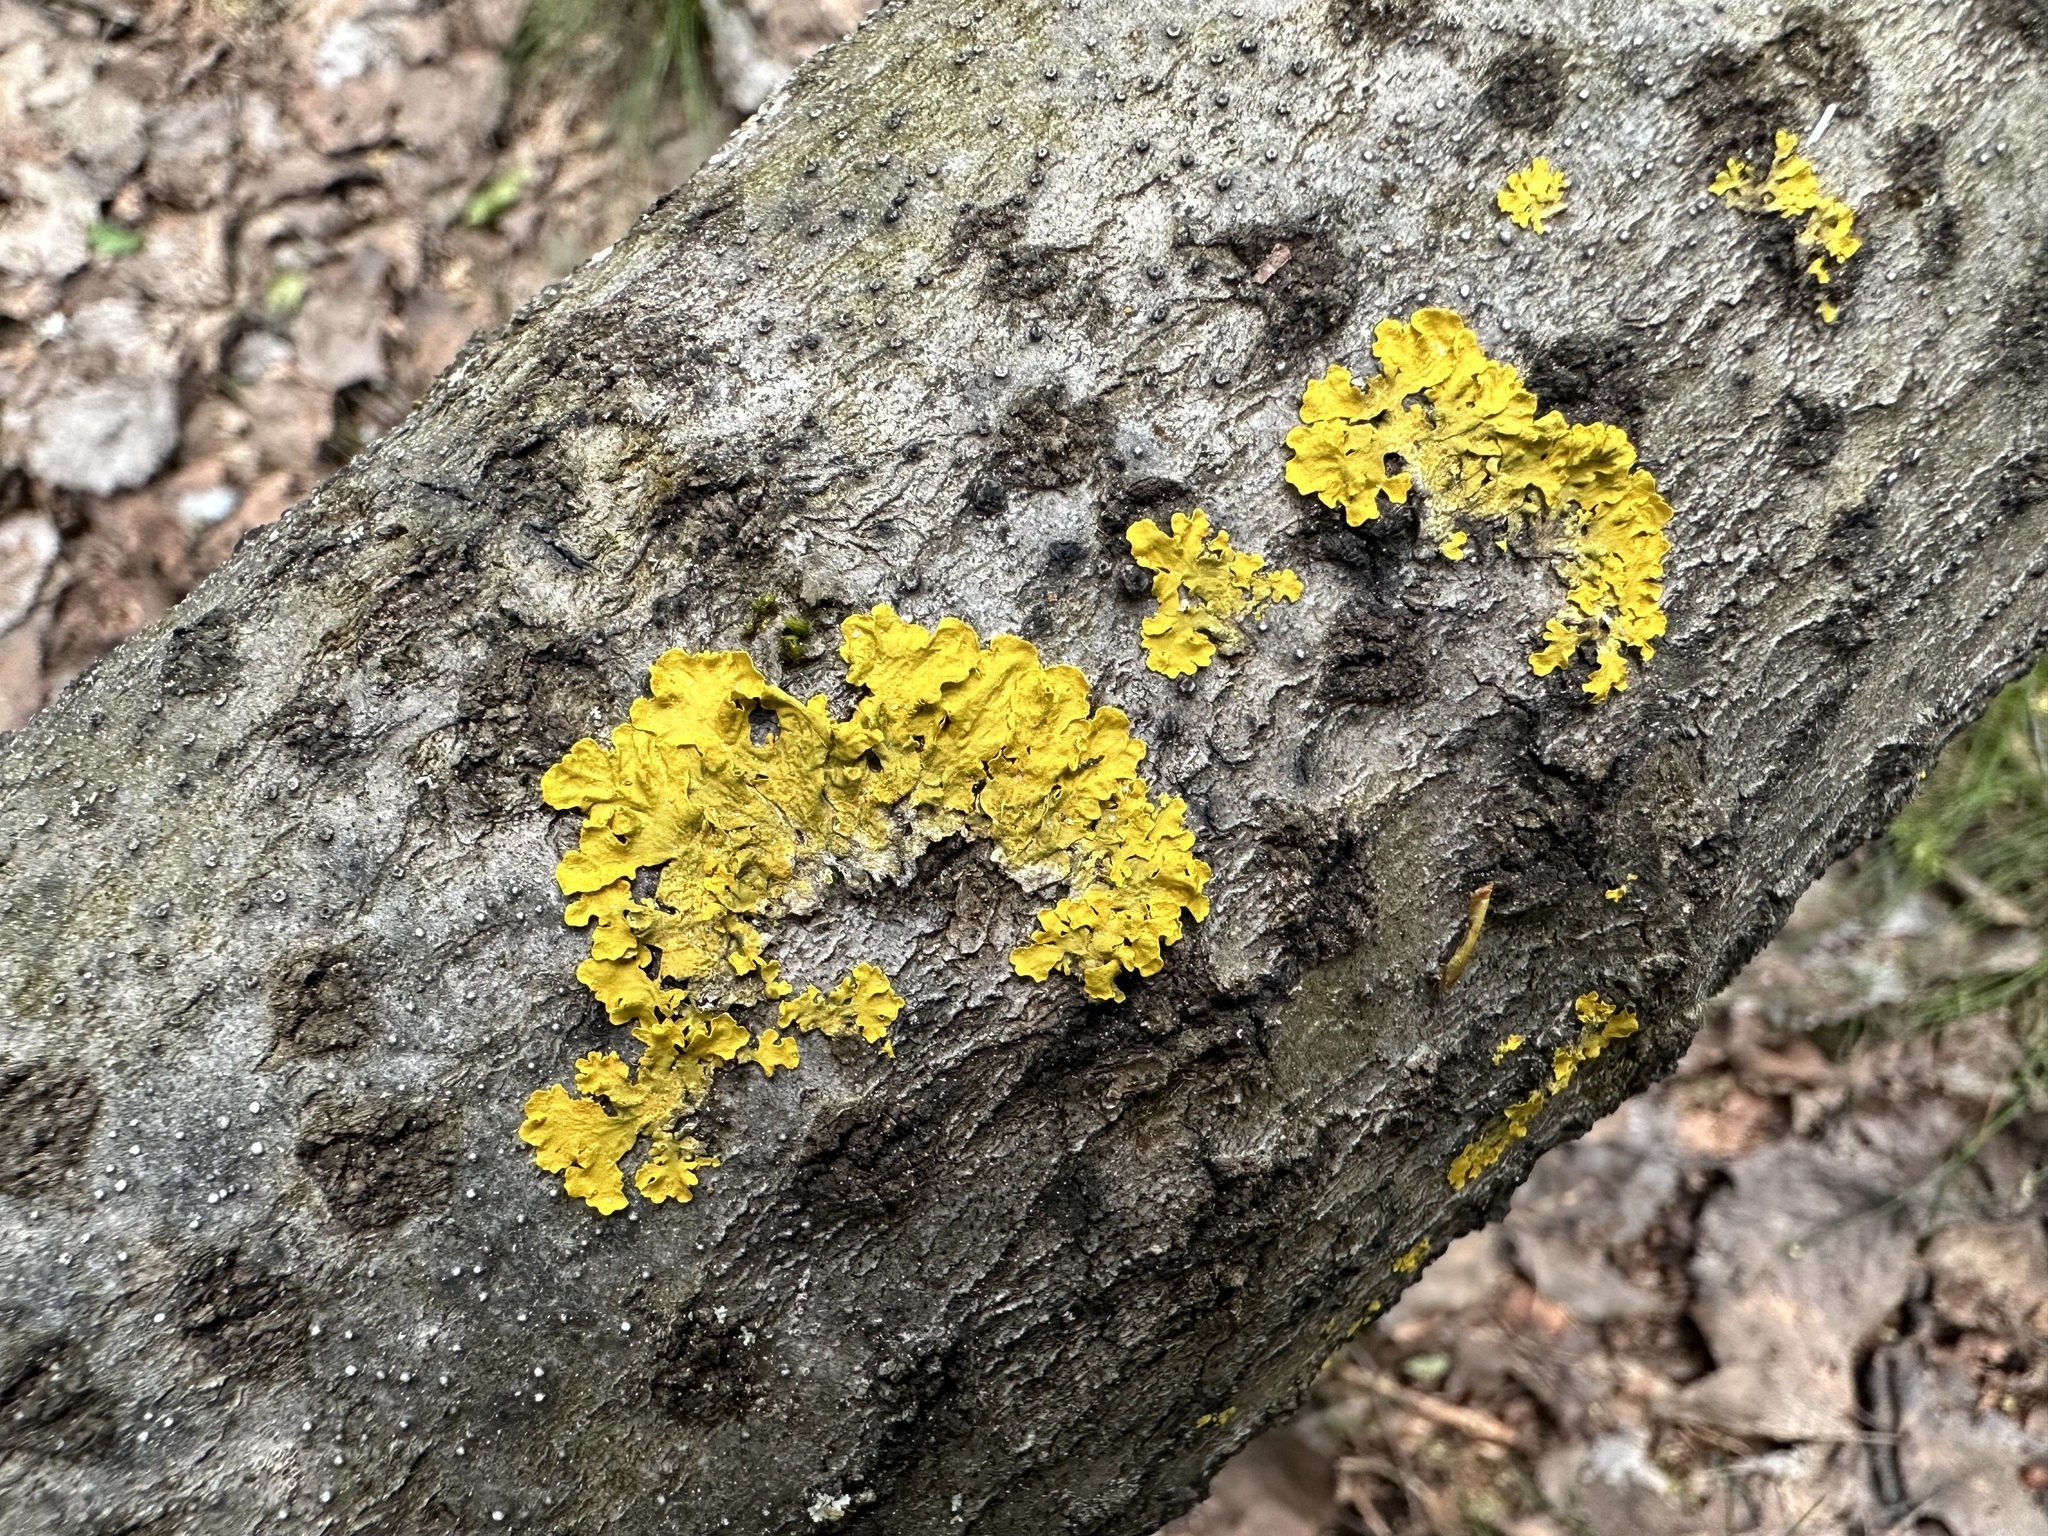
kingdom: Fungi
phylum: Ascomycota
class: Lecanoromycetes
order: Teloschistales
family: Teloschistaceae
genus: Xanthoria
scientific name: Xanthoria parietina
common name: Common orange lichen
